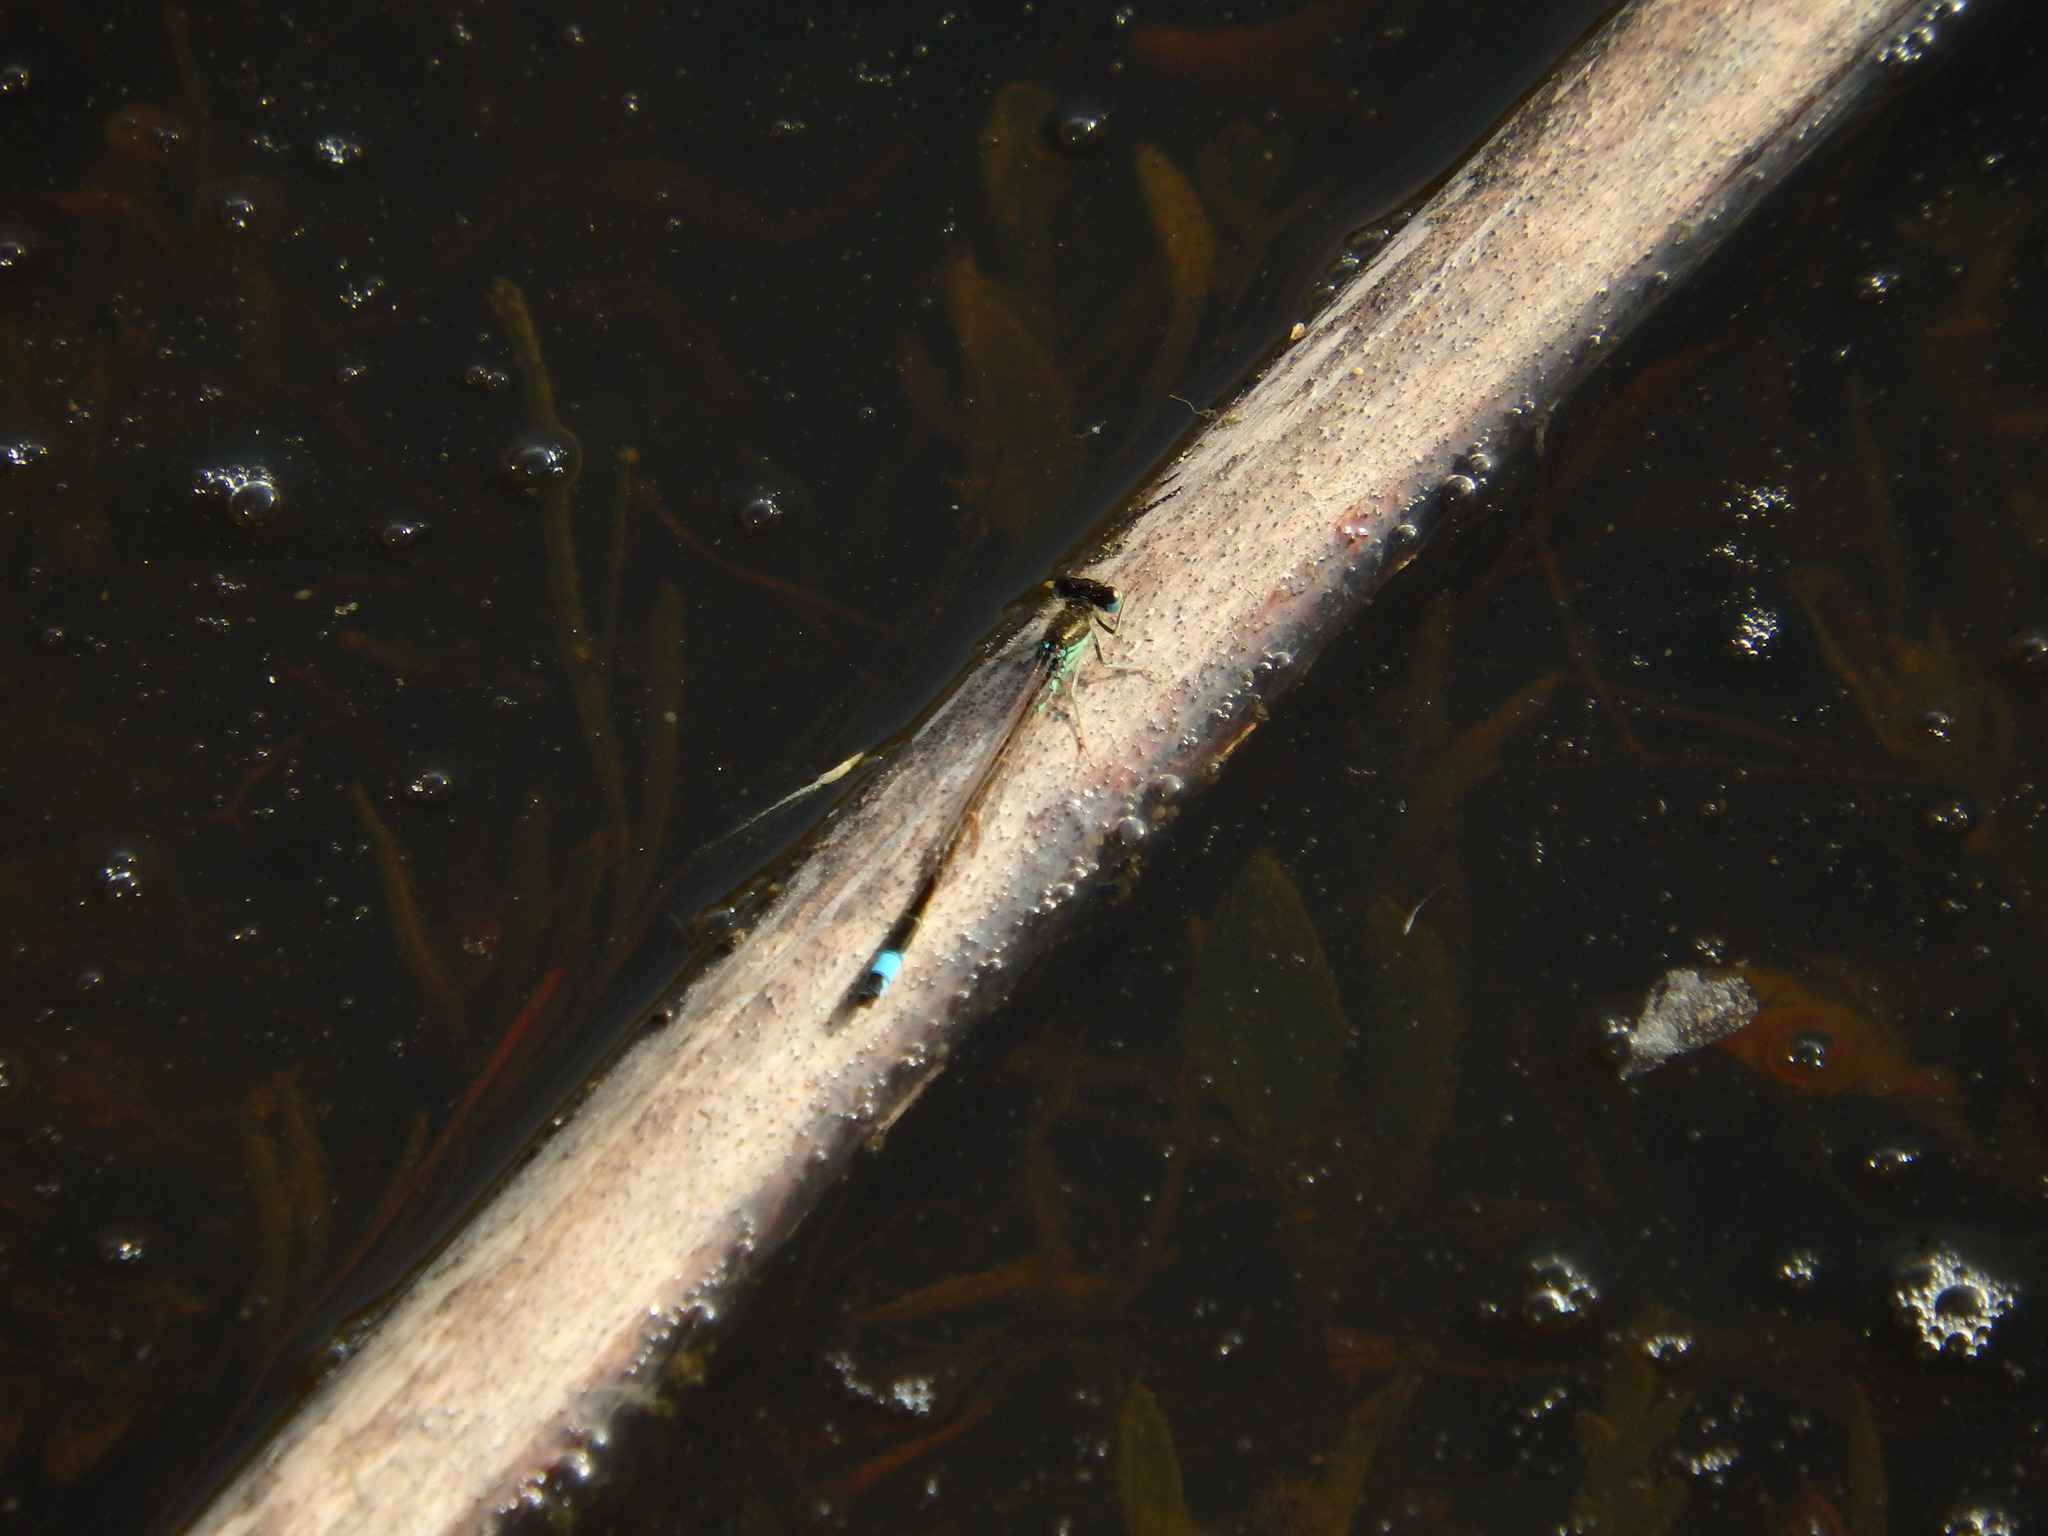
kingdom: Animalia
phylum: Arthropoda
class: Insecta
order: Odonata
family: Coenagrionidae
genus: Ischnura
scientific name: Ischnura graellsii
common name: Iberian bluetail
